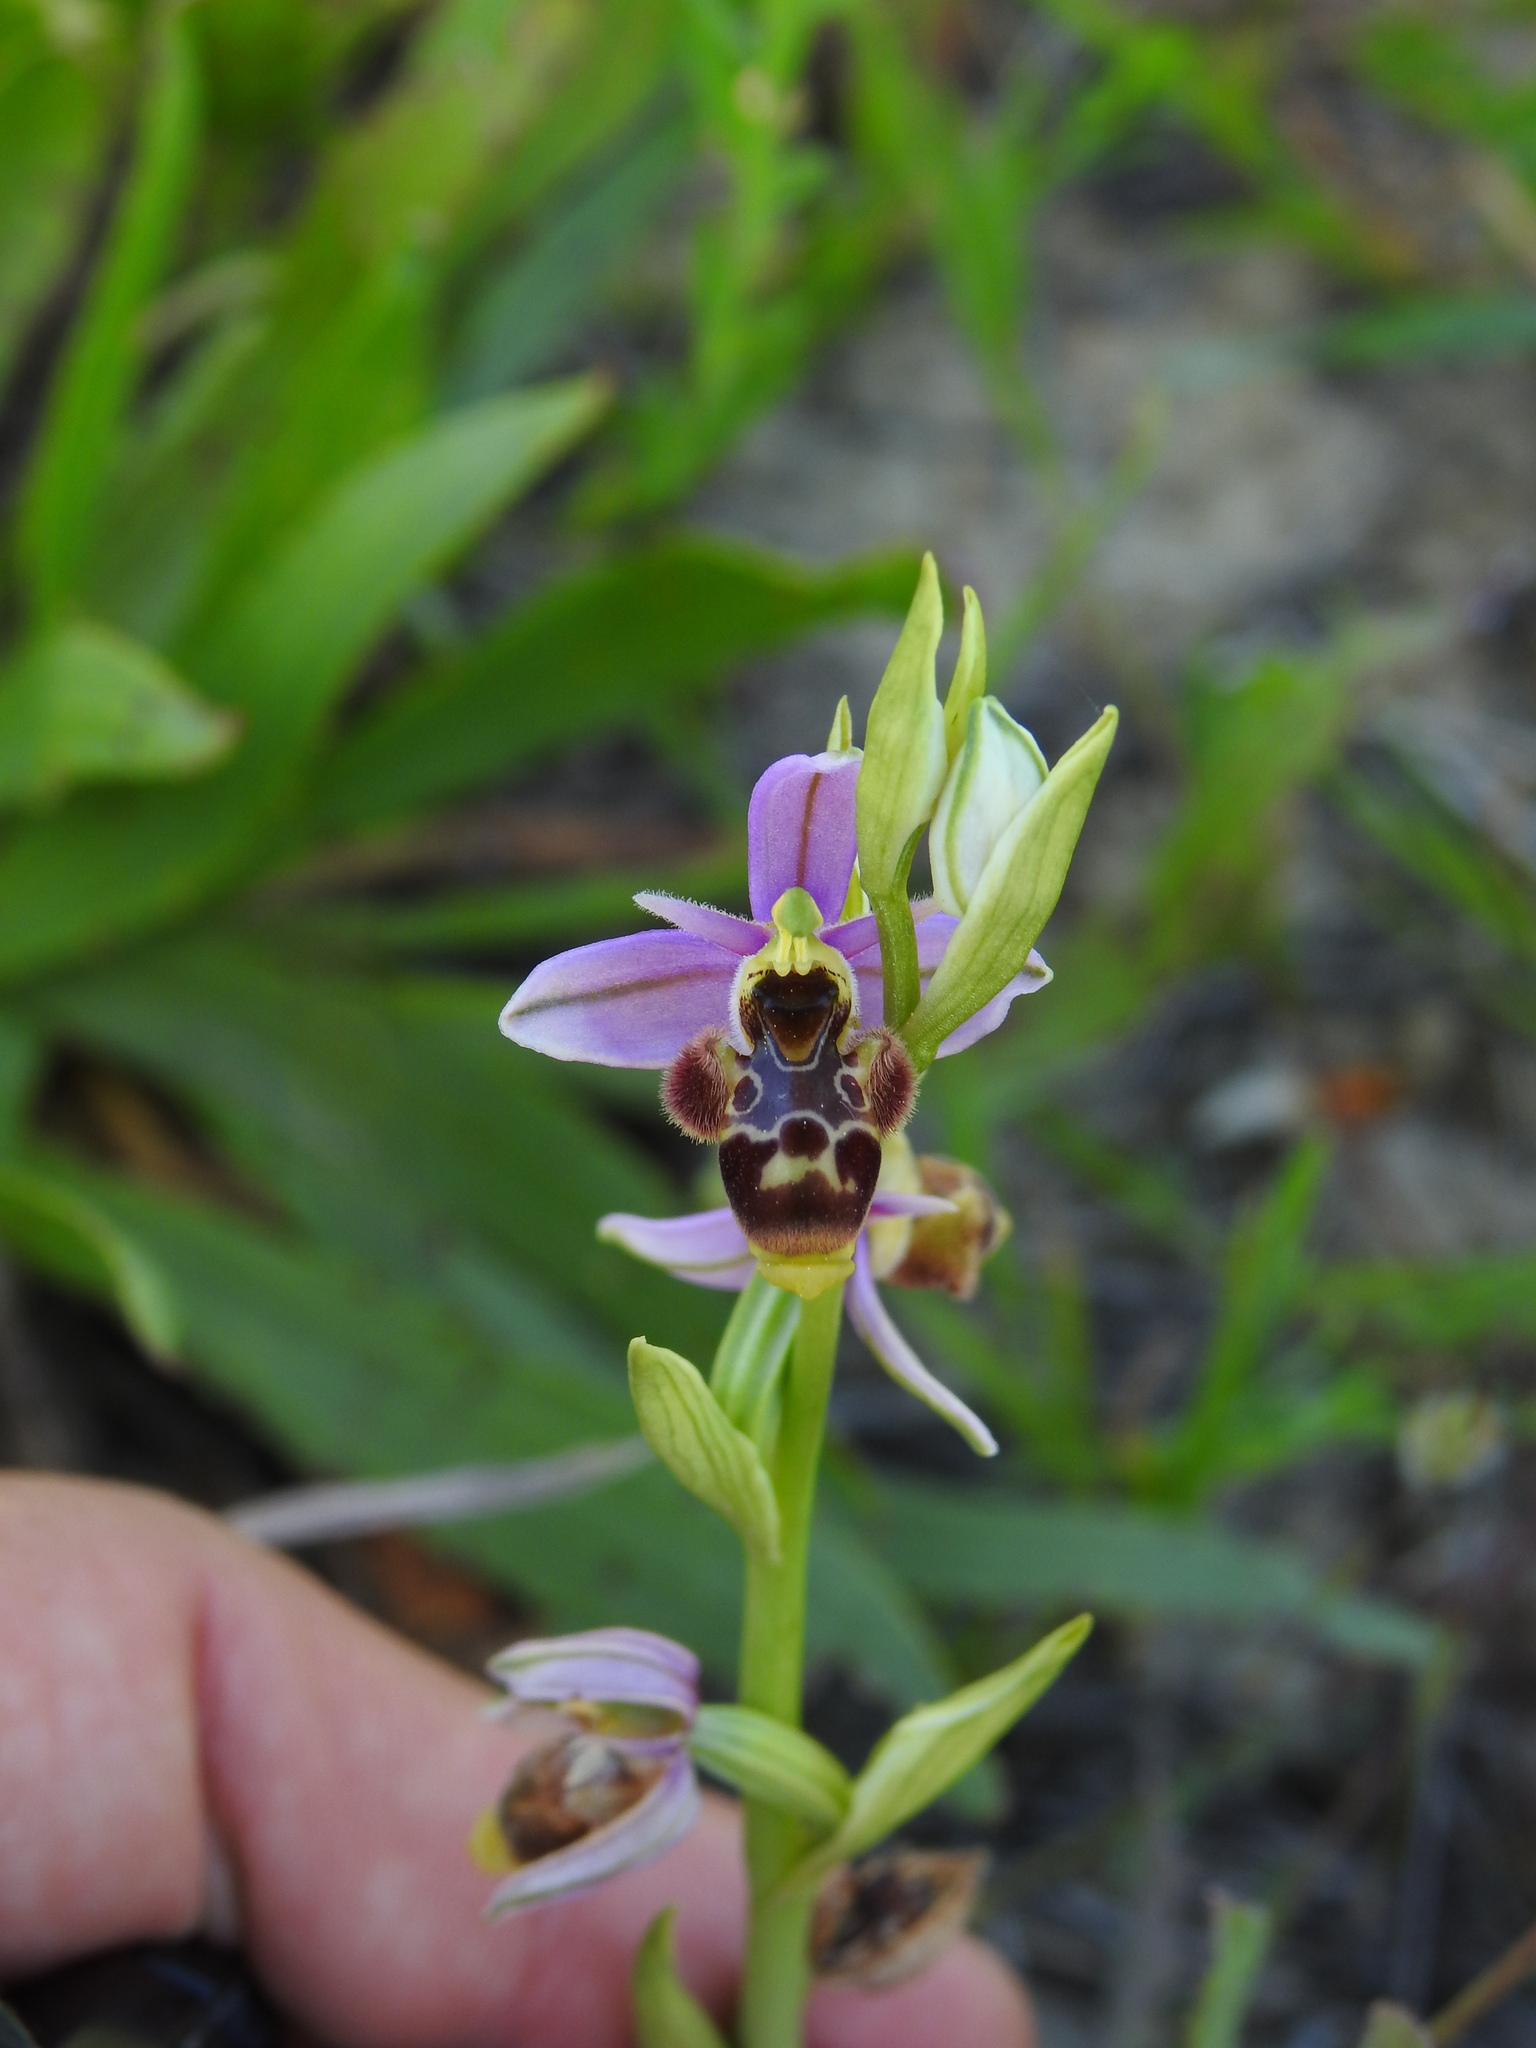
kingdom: Plantae
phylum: Tracheophyta
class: Liliopsida
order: Asparagales
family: Orchidaceae
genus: Ophrys
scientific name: Ophrys scolopax
